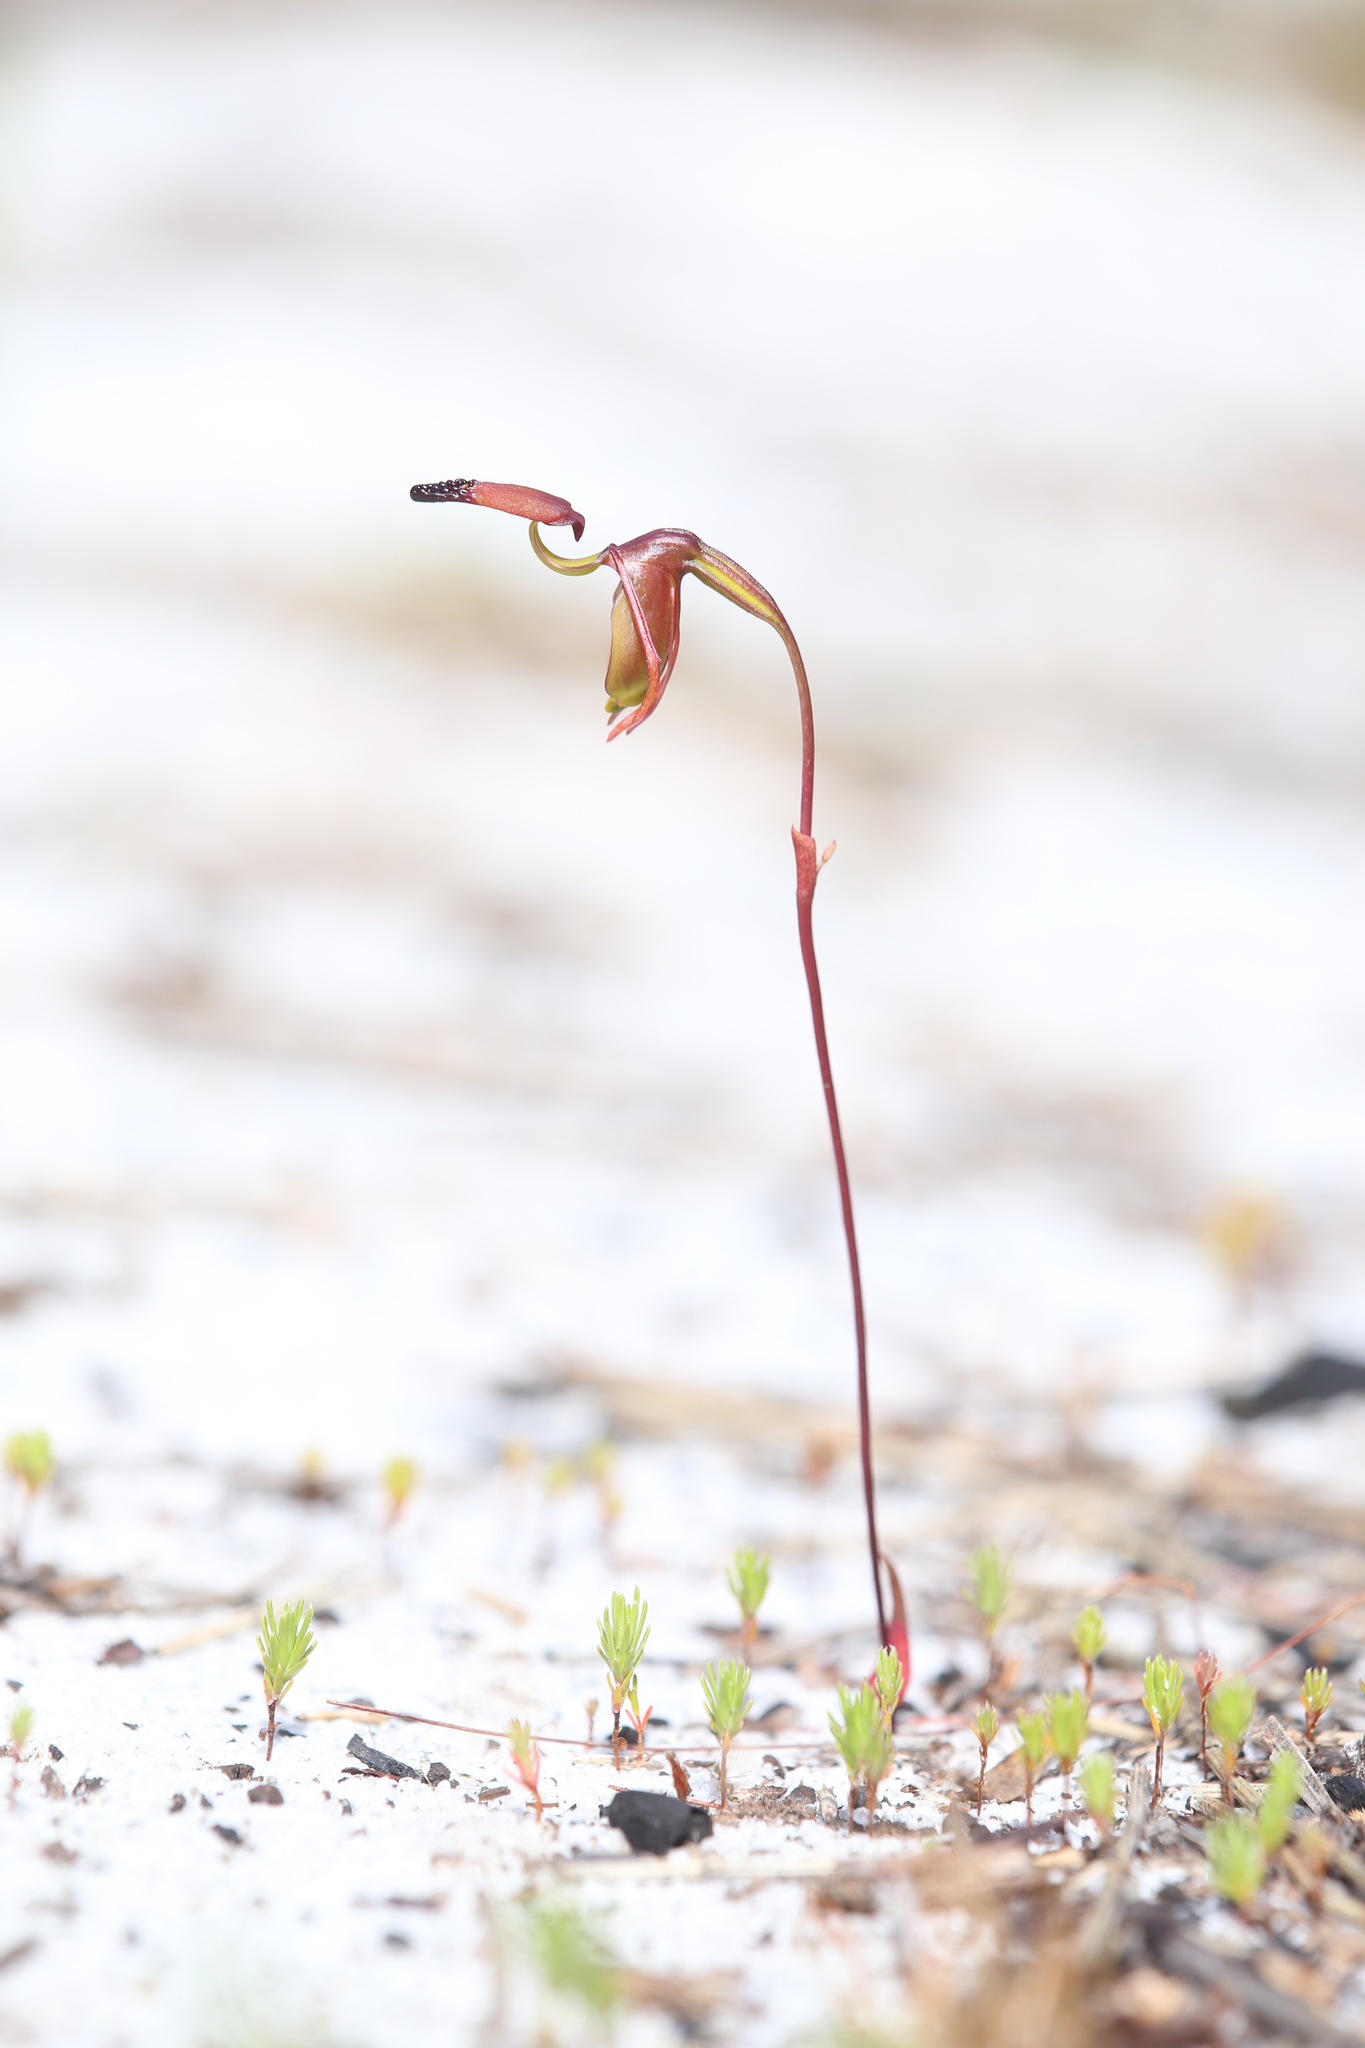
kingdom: Plantae
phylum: Tracheophyta
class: Liliopsida
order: Asparagales
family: Orchidaceae
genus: Caleana
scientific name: Caleana disjuncta
